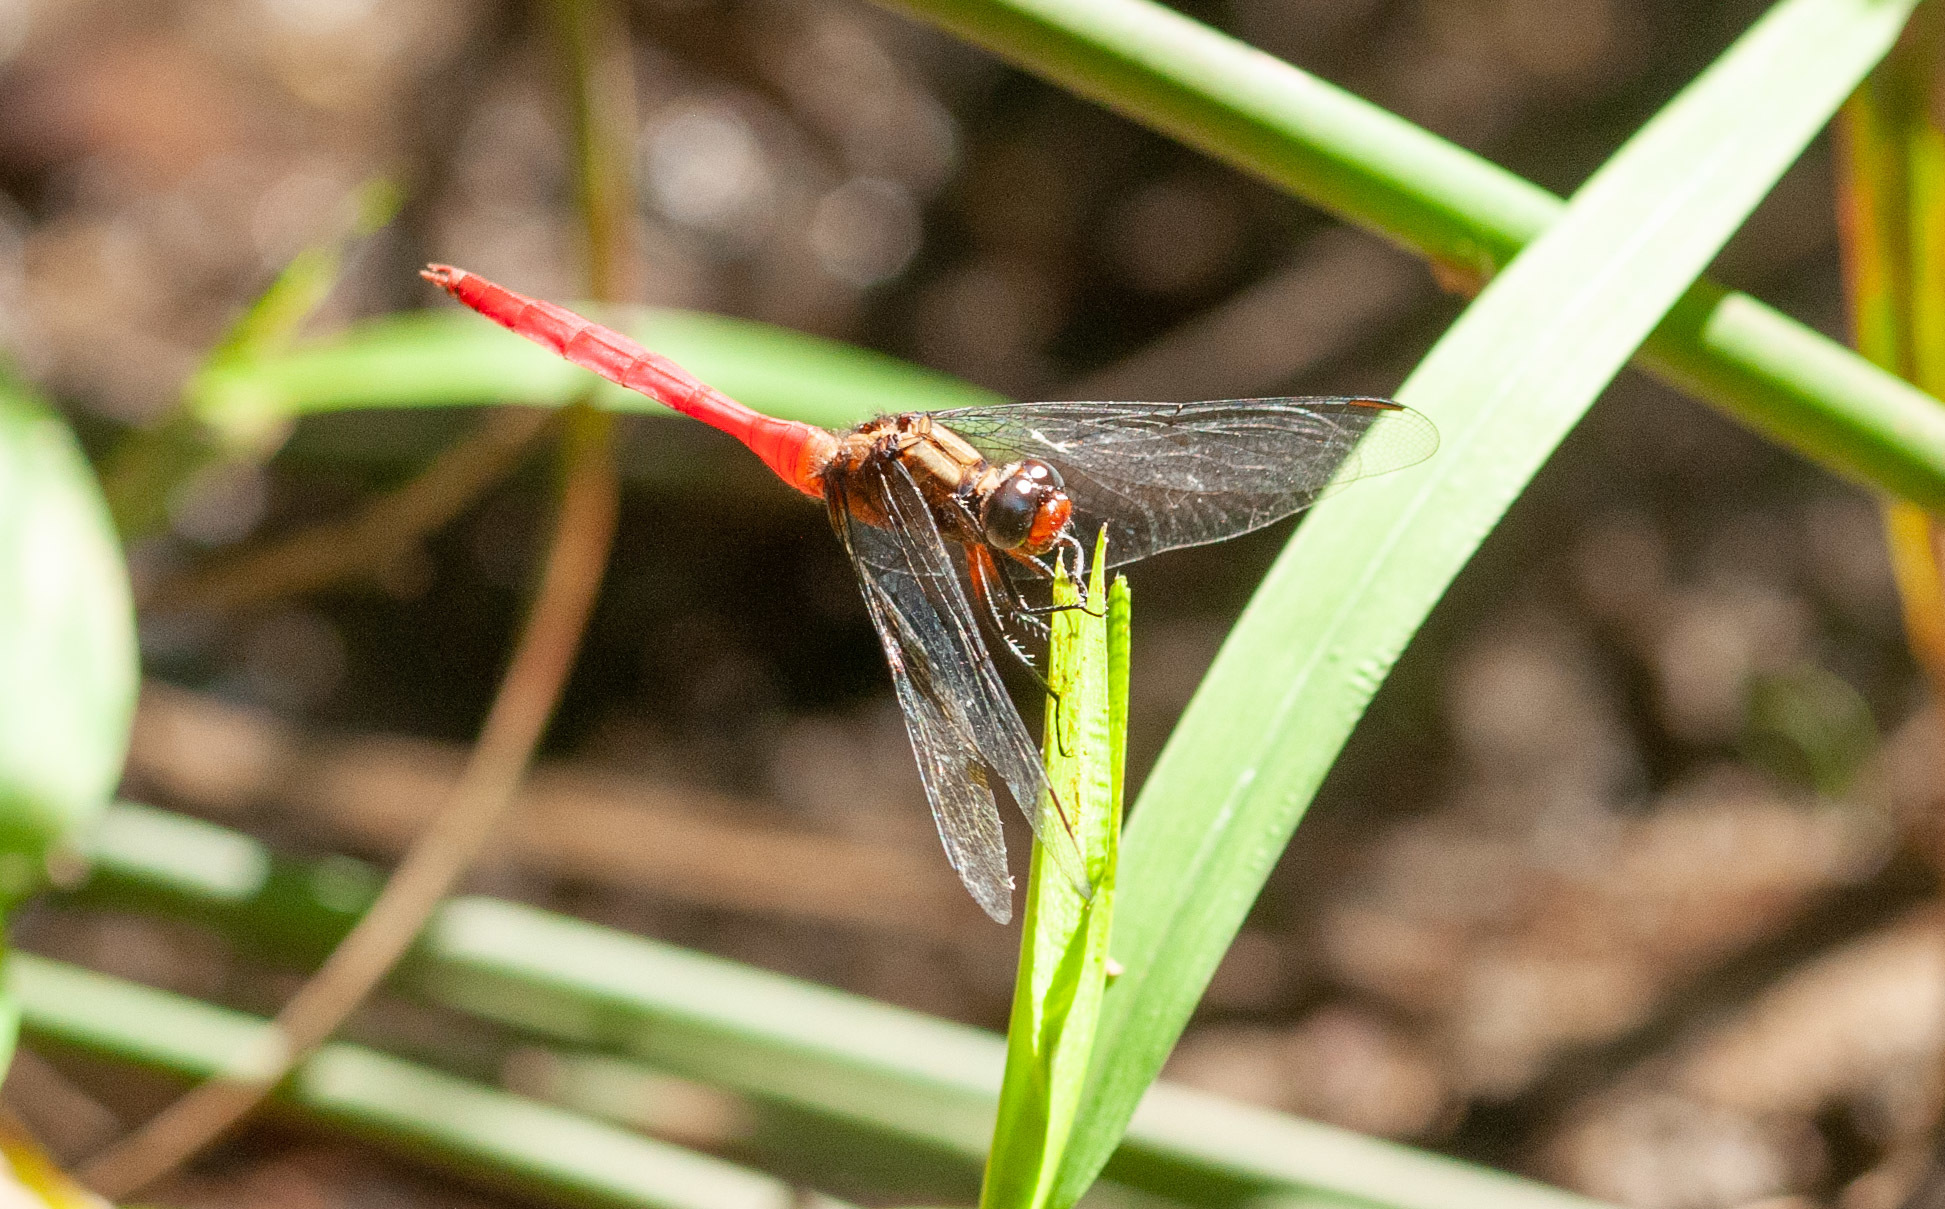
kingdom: Animalia
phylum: Arthropoda
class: Insecta
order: Odonata
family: Libellulidae
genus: Orthetrum
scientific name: Orthetrum villosovittatum
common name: Firery skimmer
